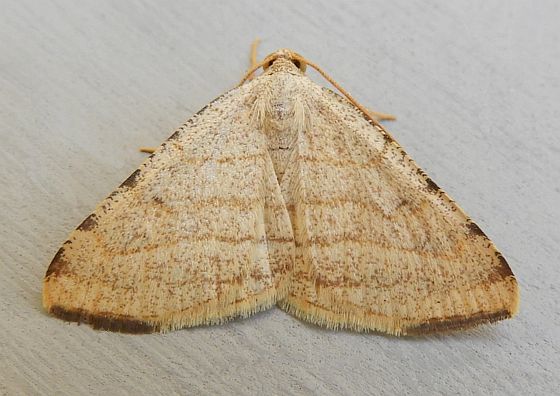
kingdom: Animalia
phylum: Arthropoda
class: Insecta
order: Lepidoptera
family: Geometridae
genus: Macaria
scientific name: Macaria octolineata
